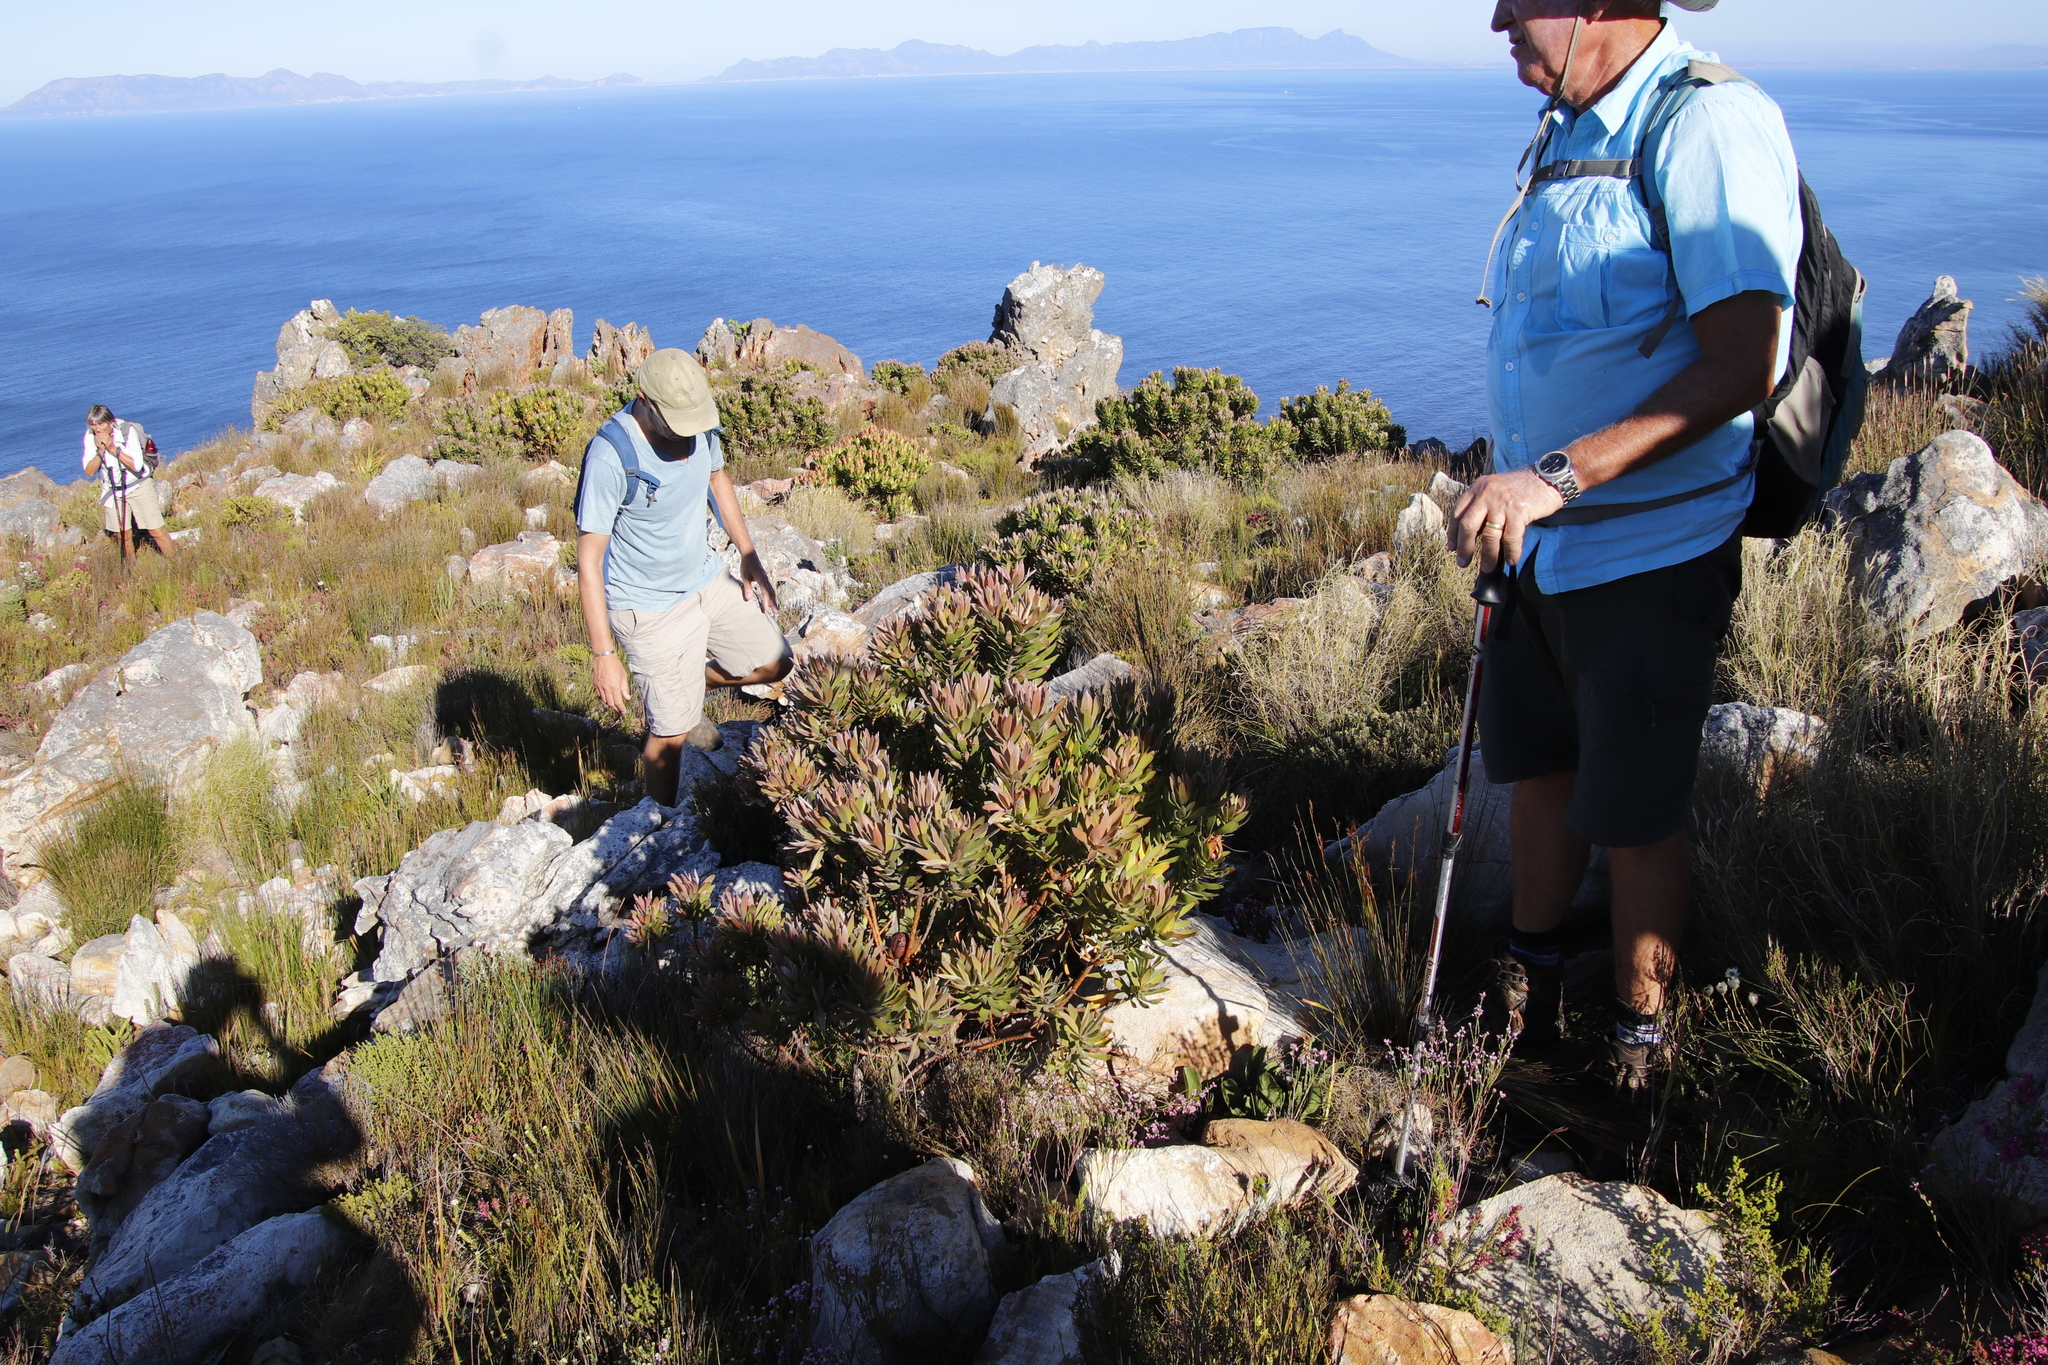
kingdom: Plantae
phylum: Tracheophyta
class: Magnoliopsida
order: Proteales
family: Proteaceae
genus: Leucadendron
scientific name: Leucadendron laureolum
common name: Golden sunshinebush
